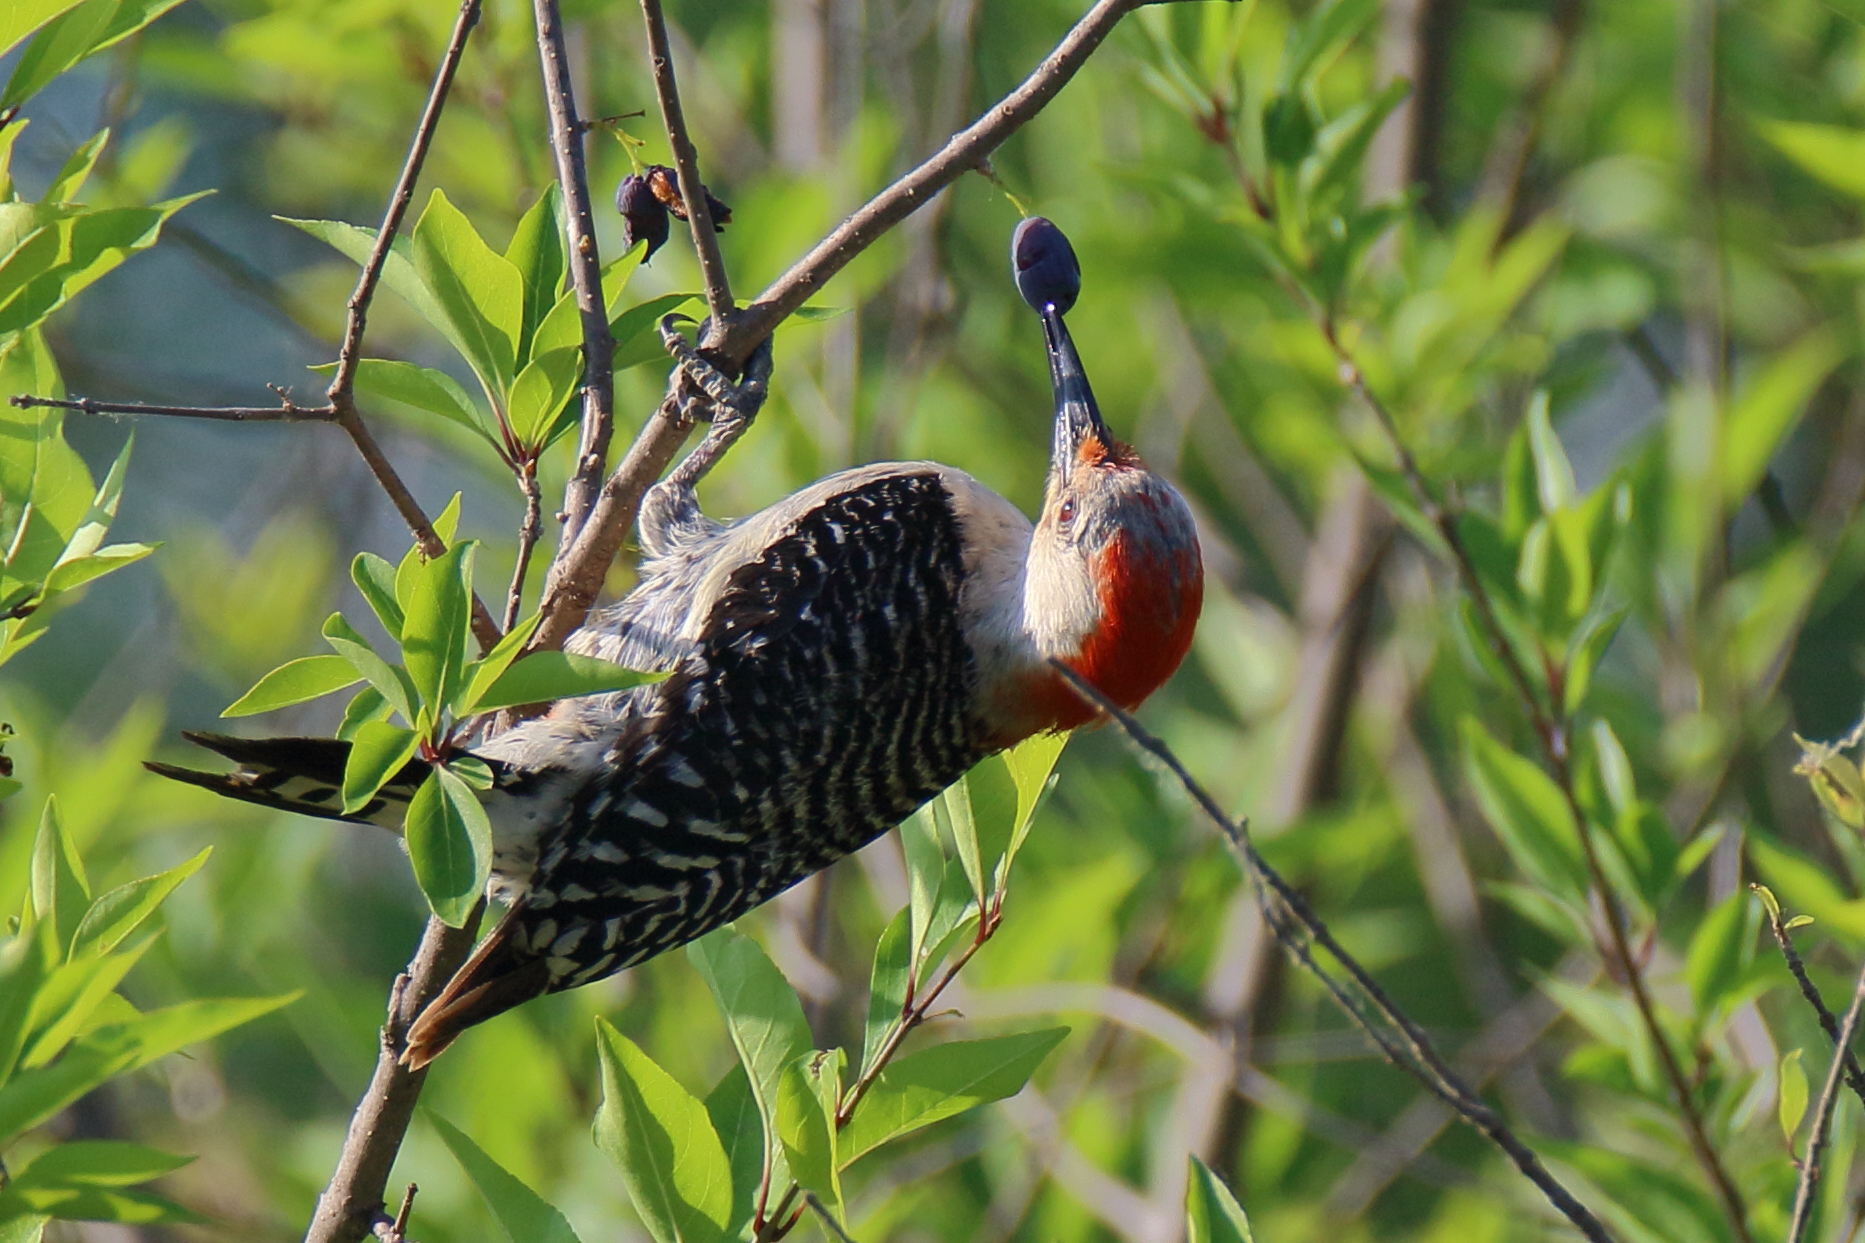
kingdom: Animalia
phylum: Chordata
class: Aves
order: Piciformes
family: Picidae
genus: Melanerpes
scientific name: Melanerpes carolinus
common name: Red-bellied woodpecker
